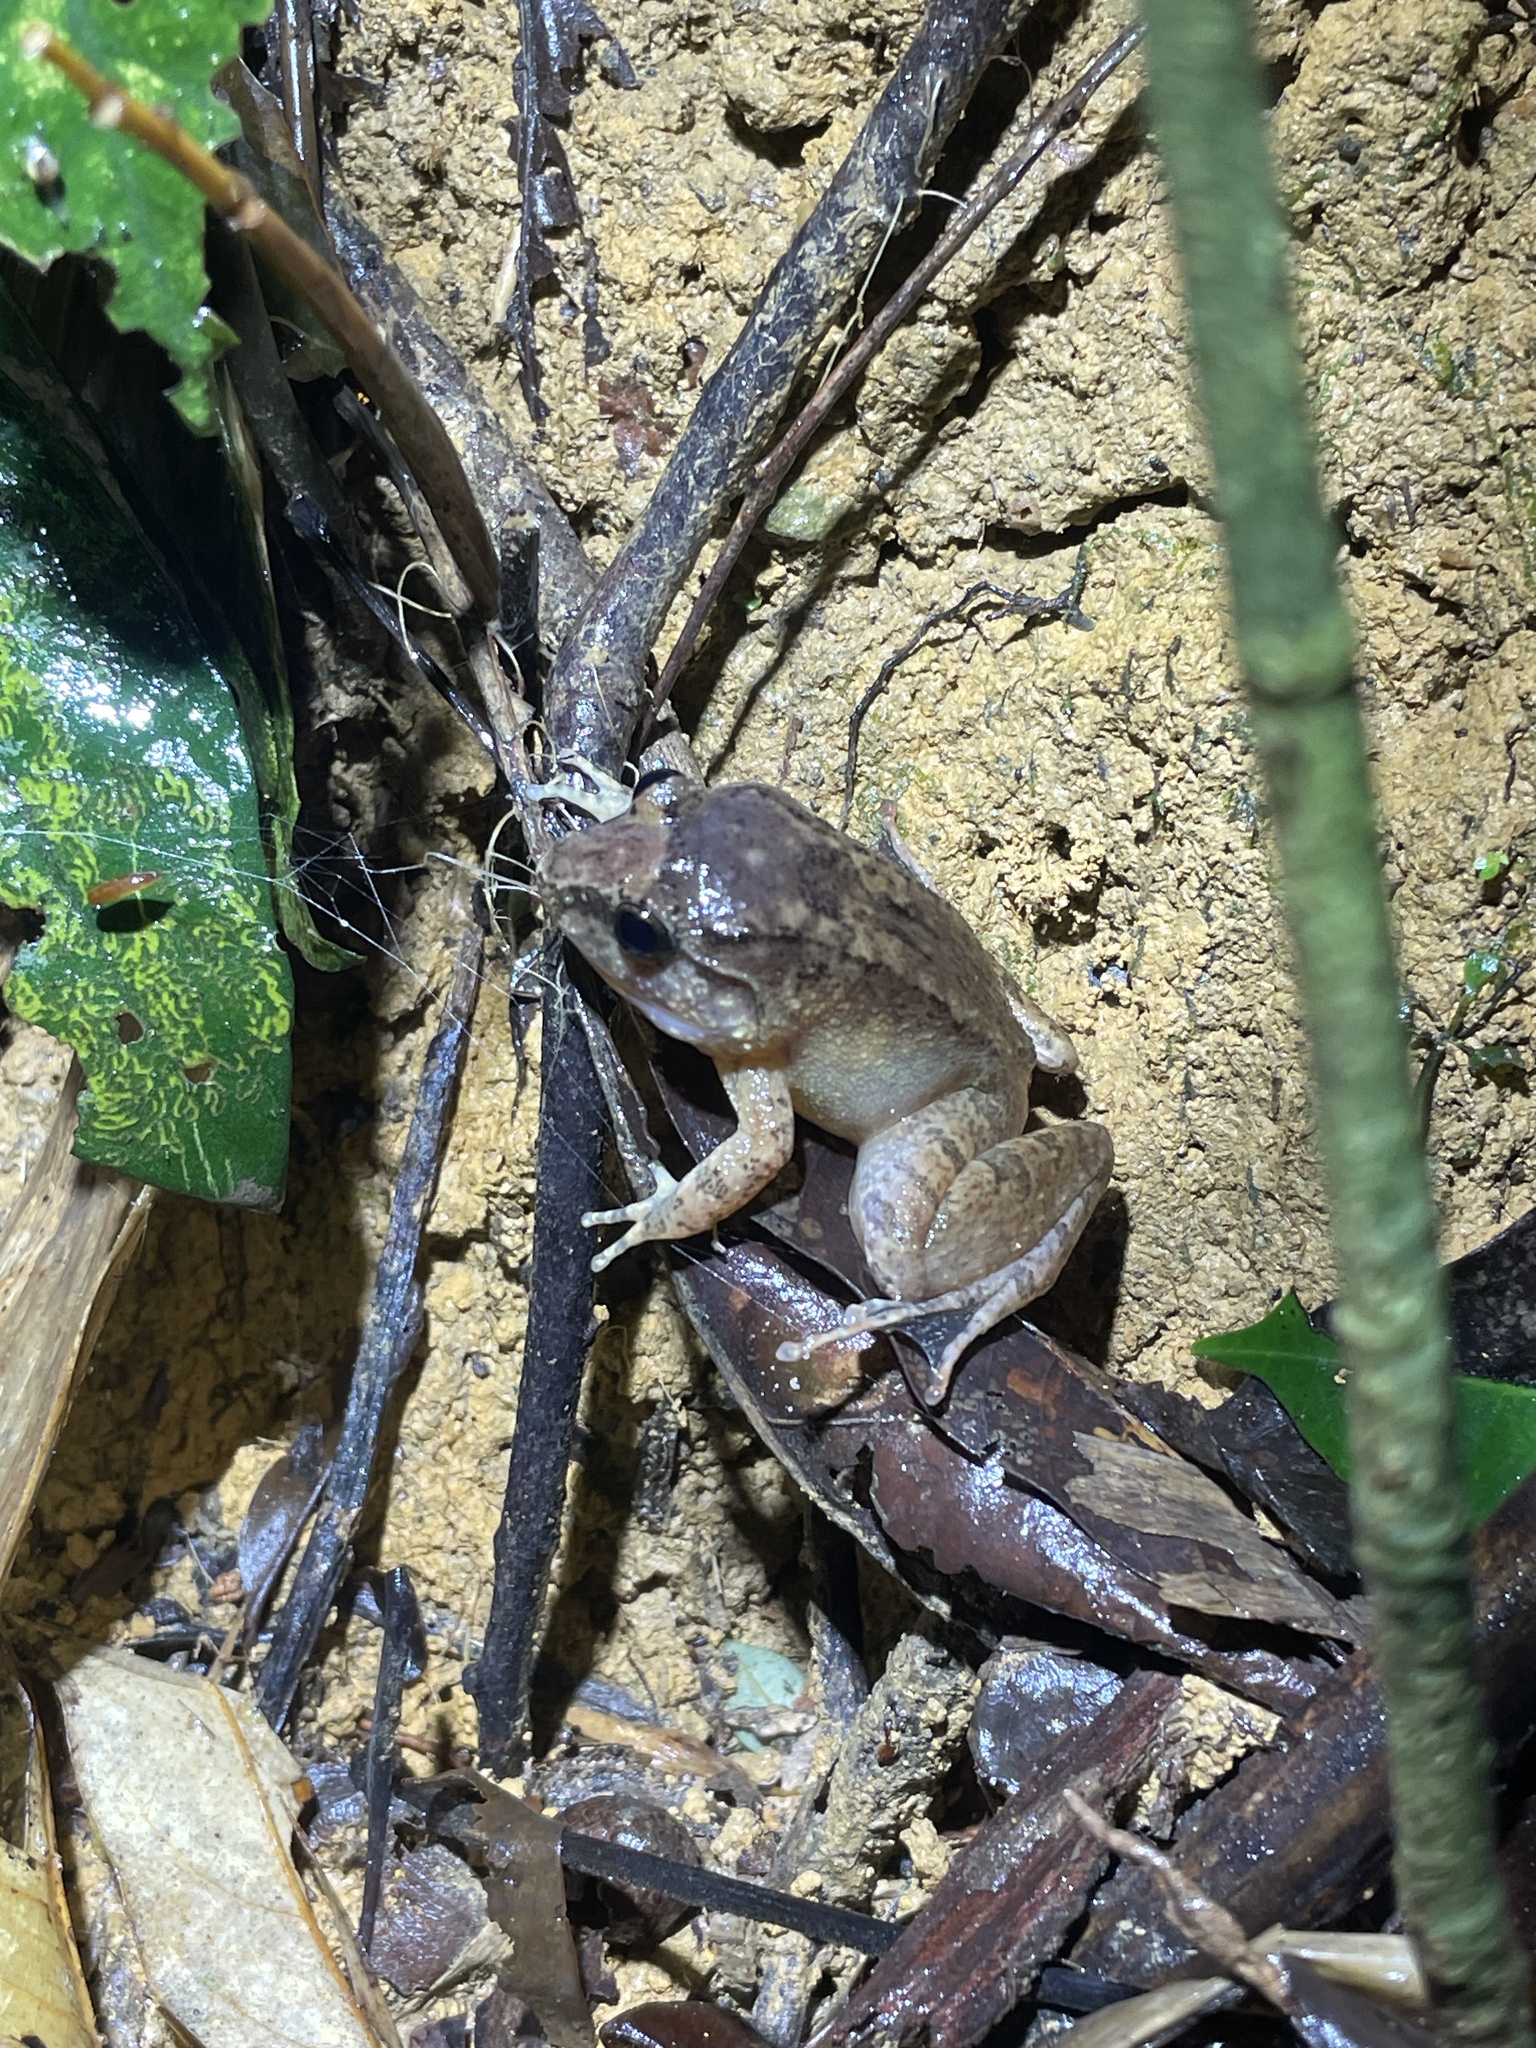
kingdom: Animalia
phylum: Chordata
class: Amphibia
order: Anura
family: Dicroglossidae
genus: Limnonectes
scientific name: Limnonectes hascheanus
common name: Hill forest frog
